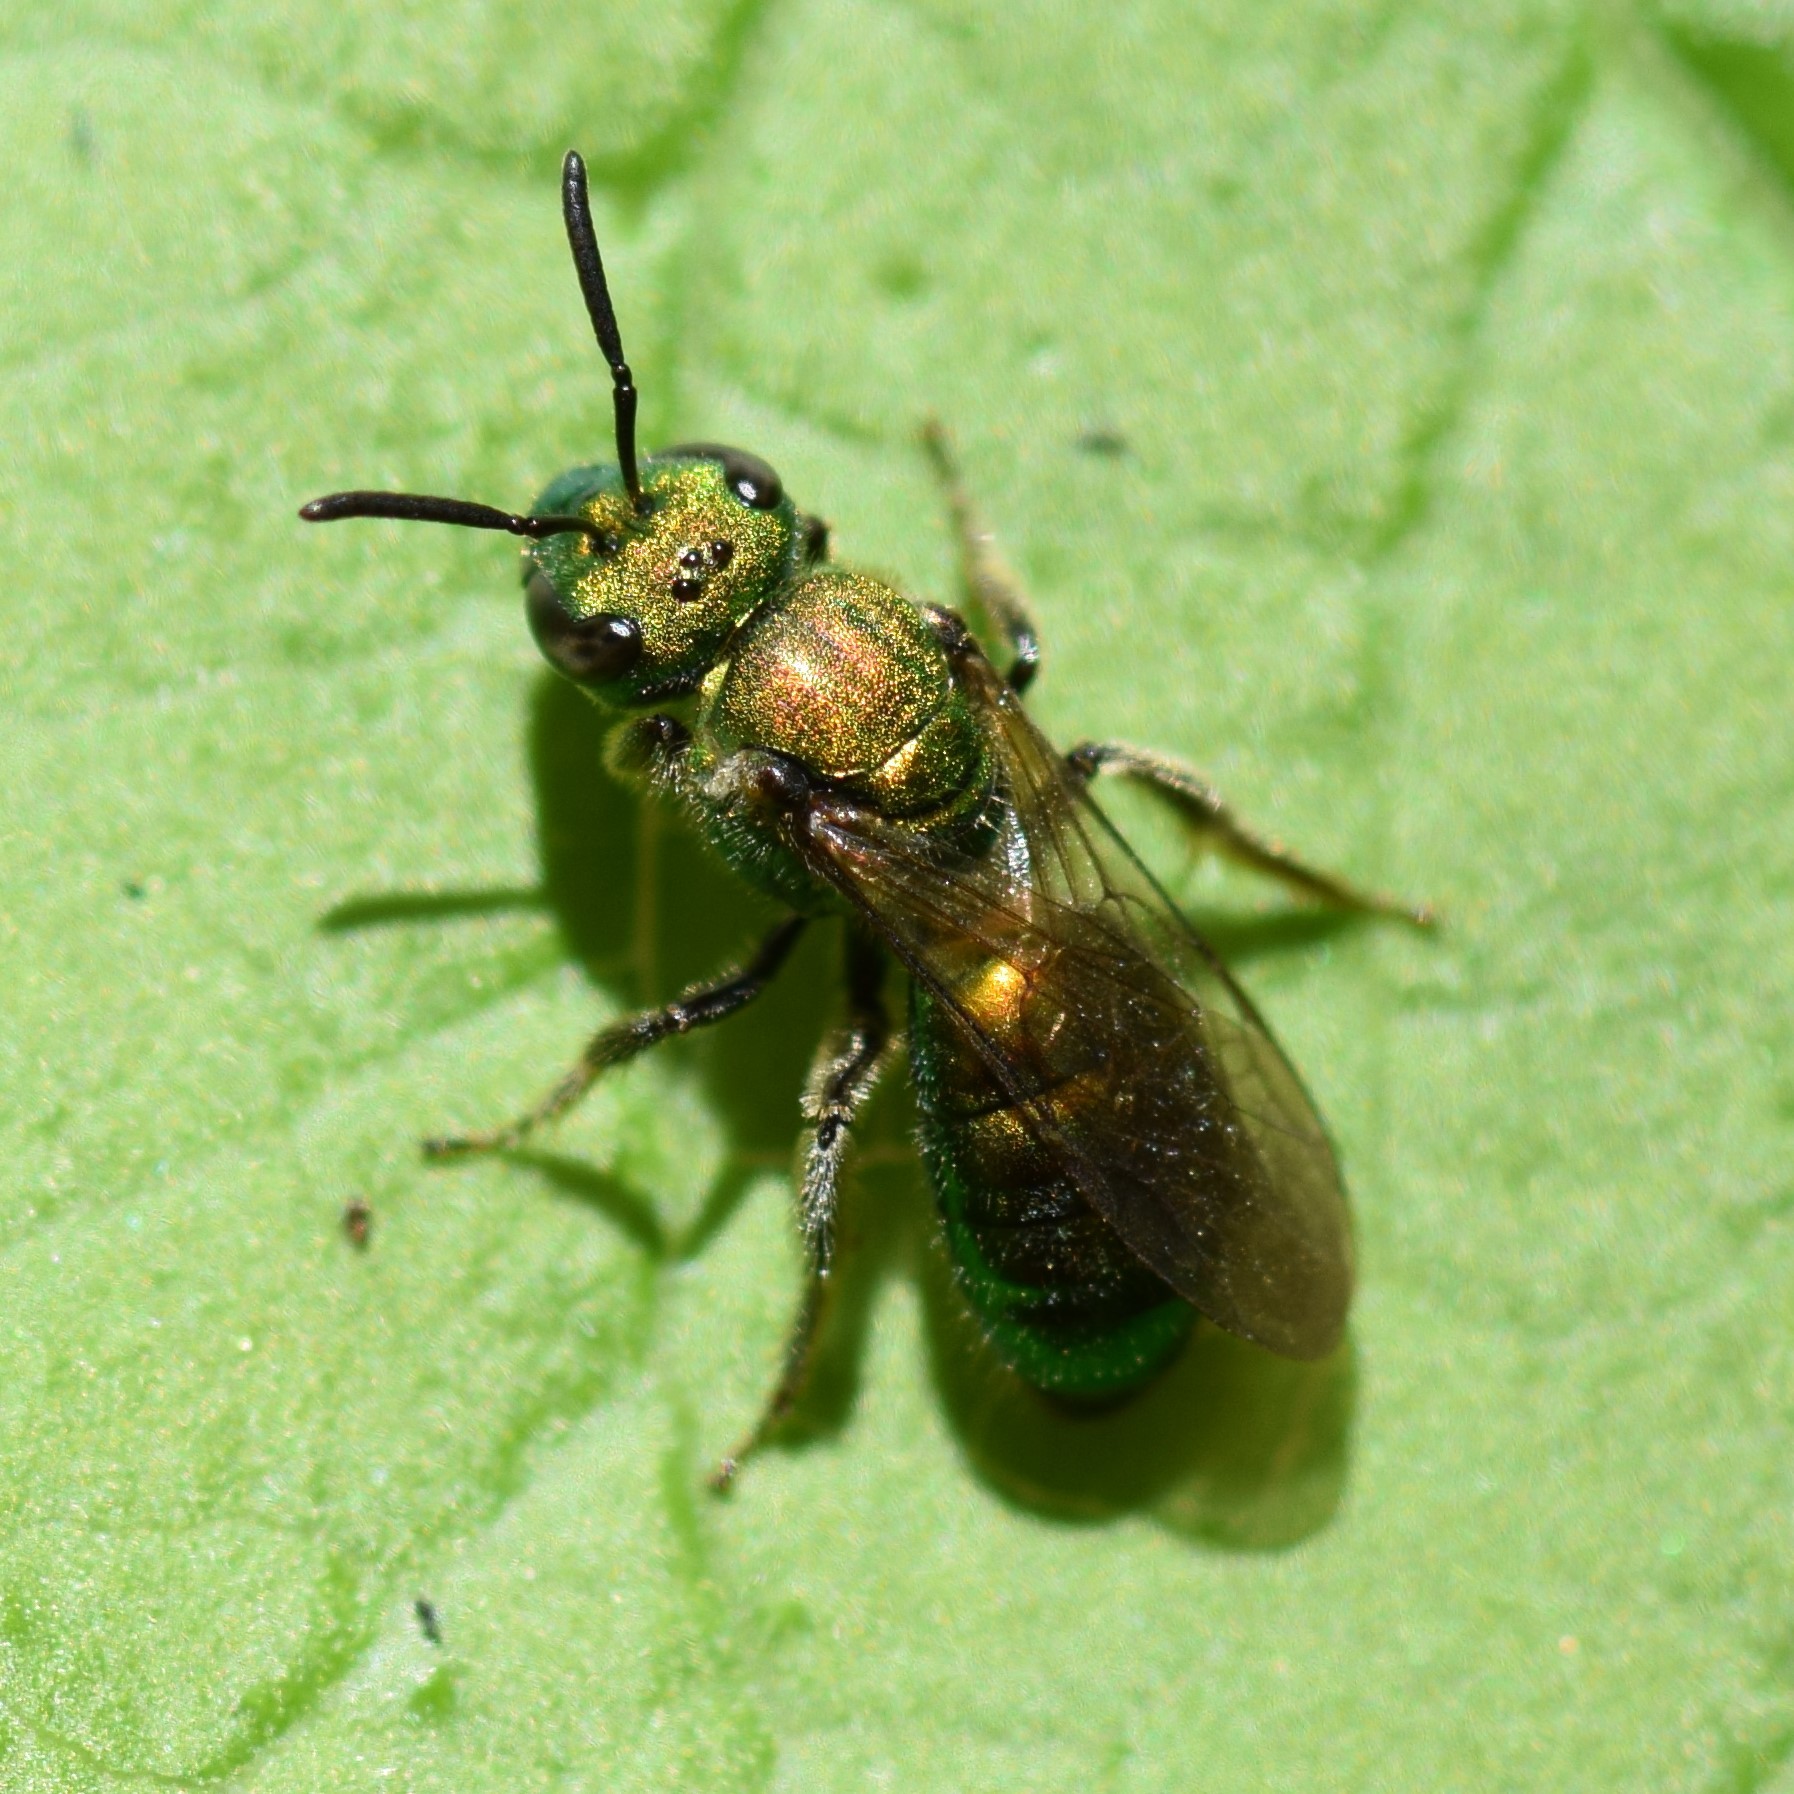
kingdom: Animalia
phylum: Arthropoda
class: Insecta
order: Hymenoptera
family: Halictidae
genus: Augochlora
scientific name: Augochlora pura
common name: Pure green sweat bee
